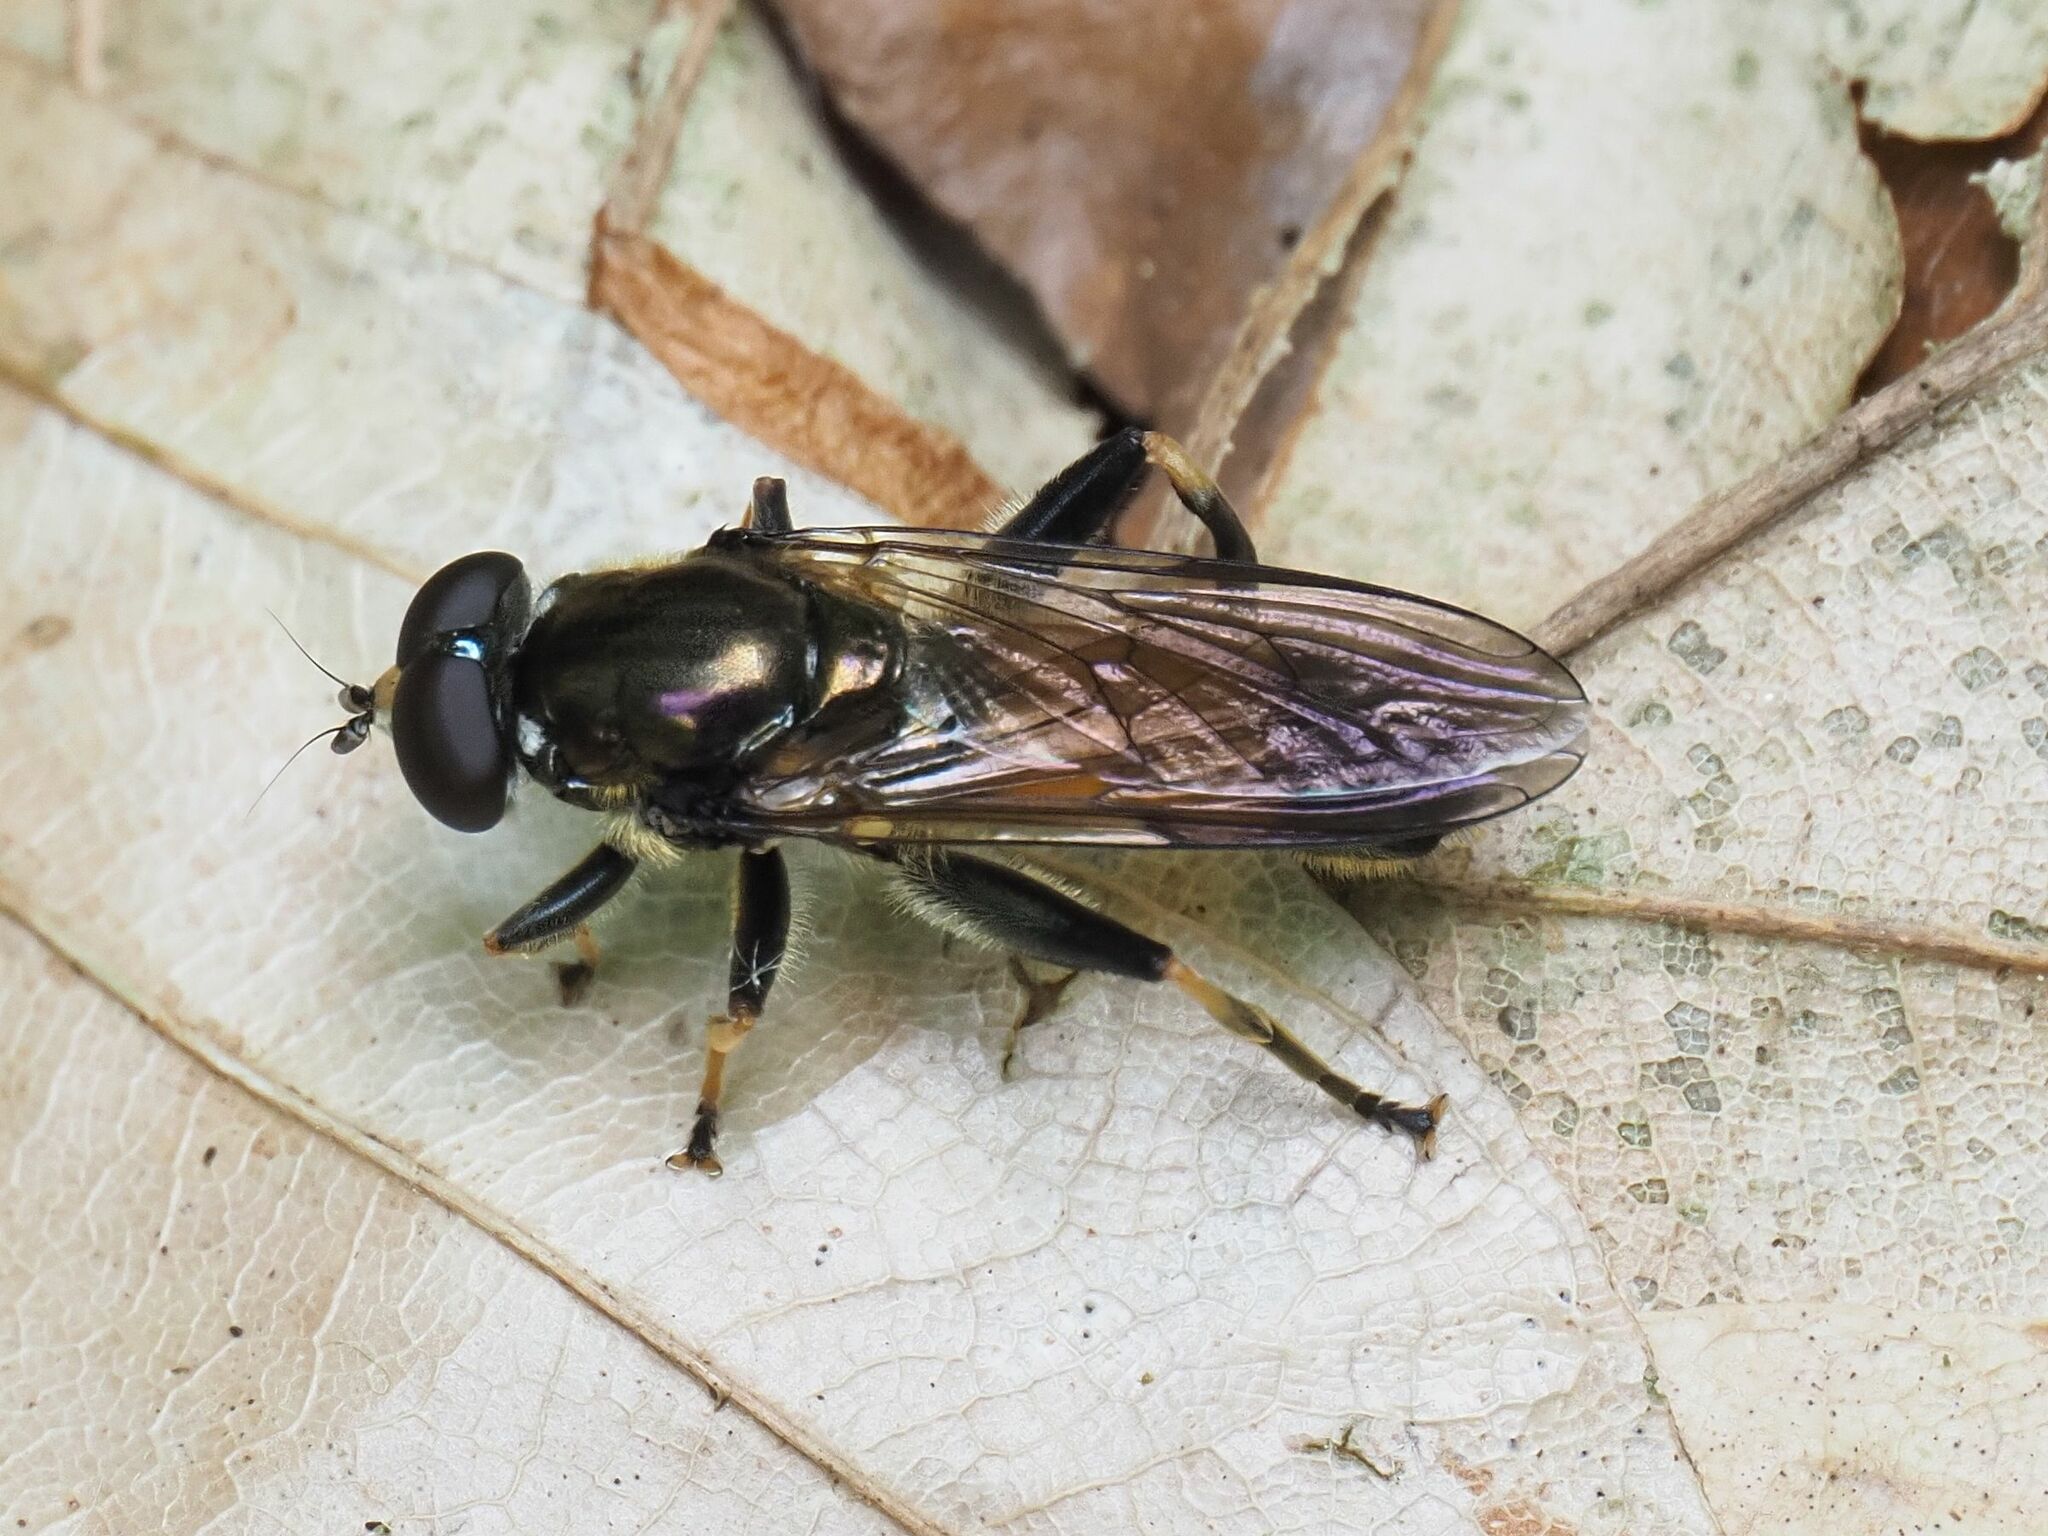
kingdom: Animalia
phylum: Arthropoda
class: Insecta
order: Diptera
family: Syrphidae
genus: Xylota
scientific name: Xylota segnis
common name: Brown-toed forest fly
